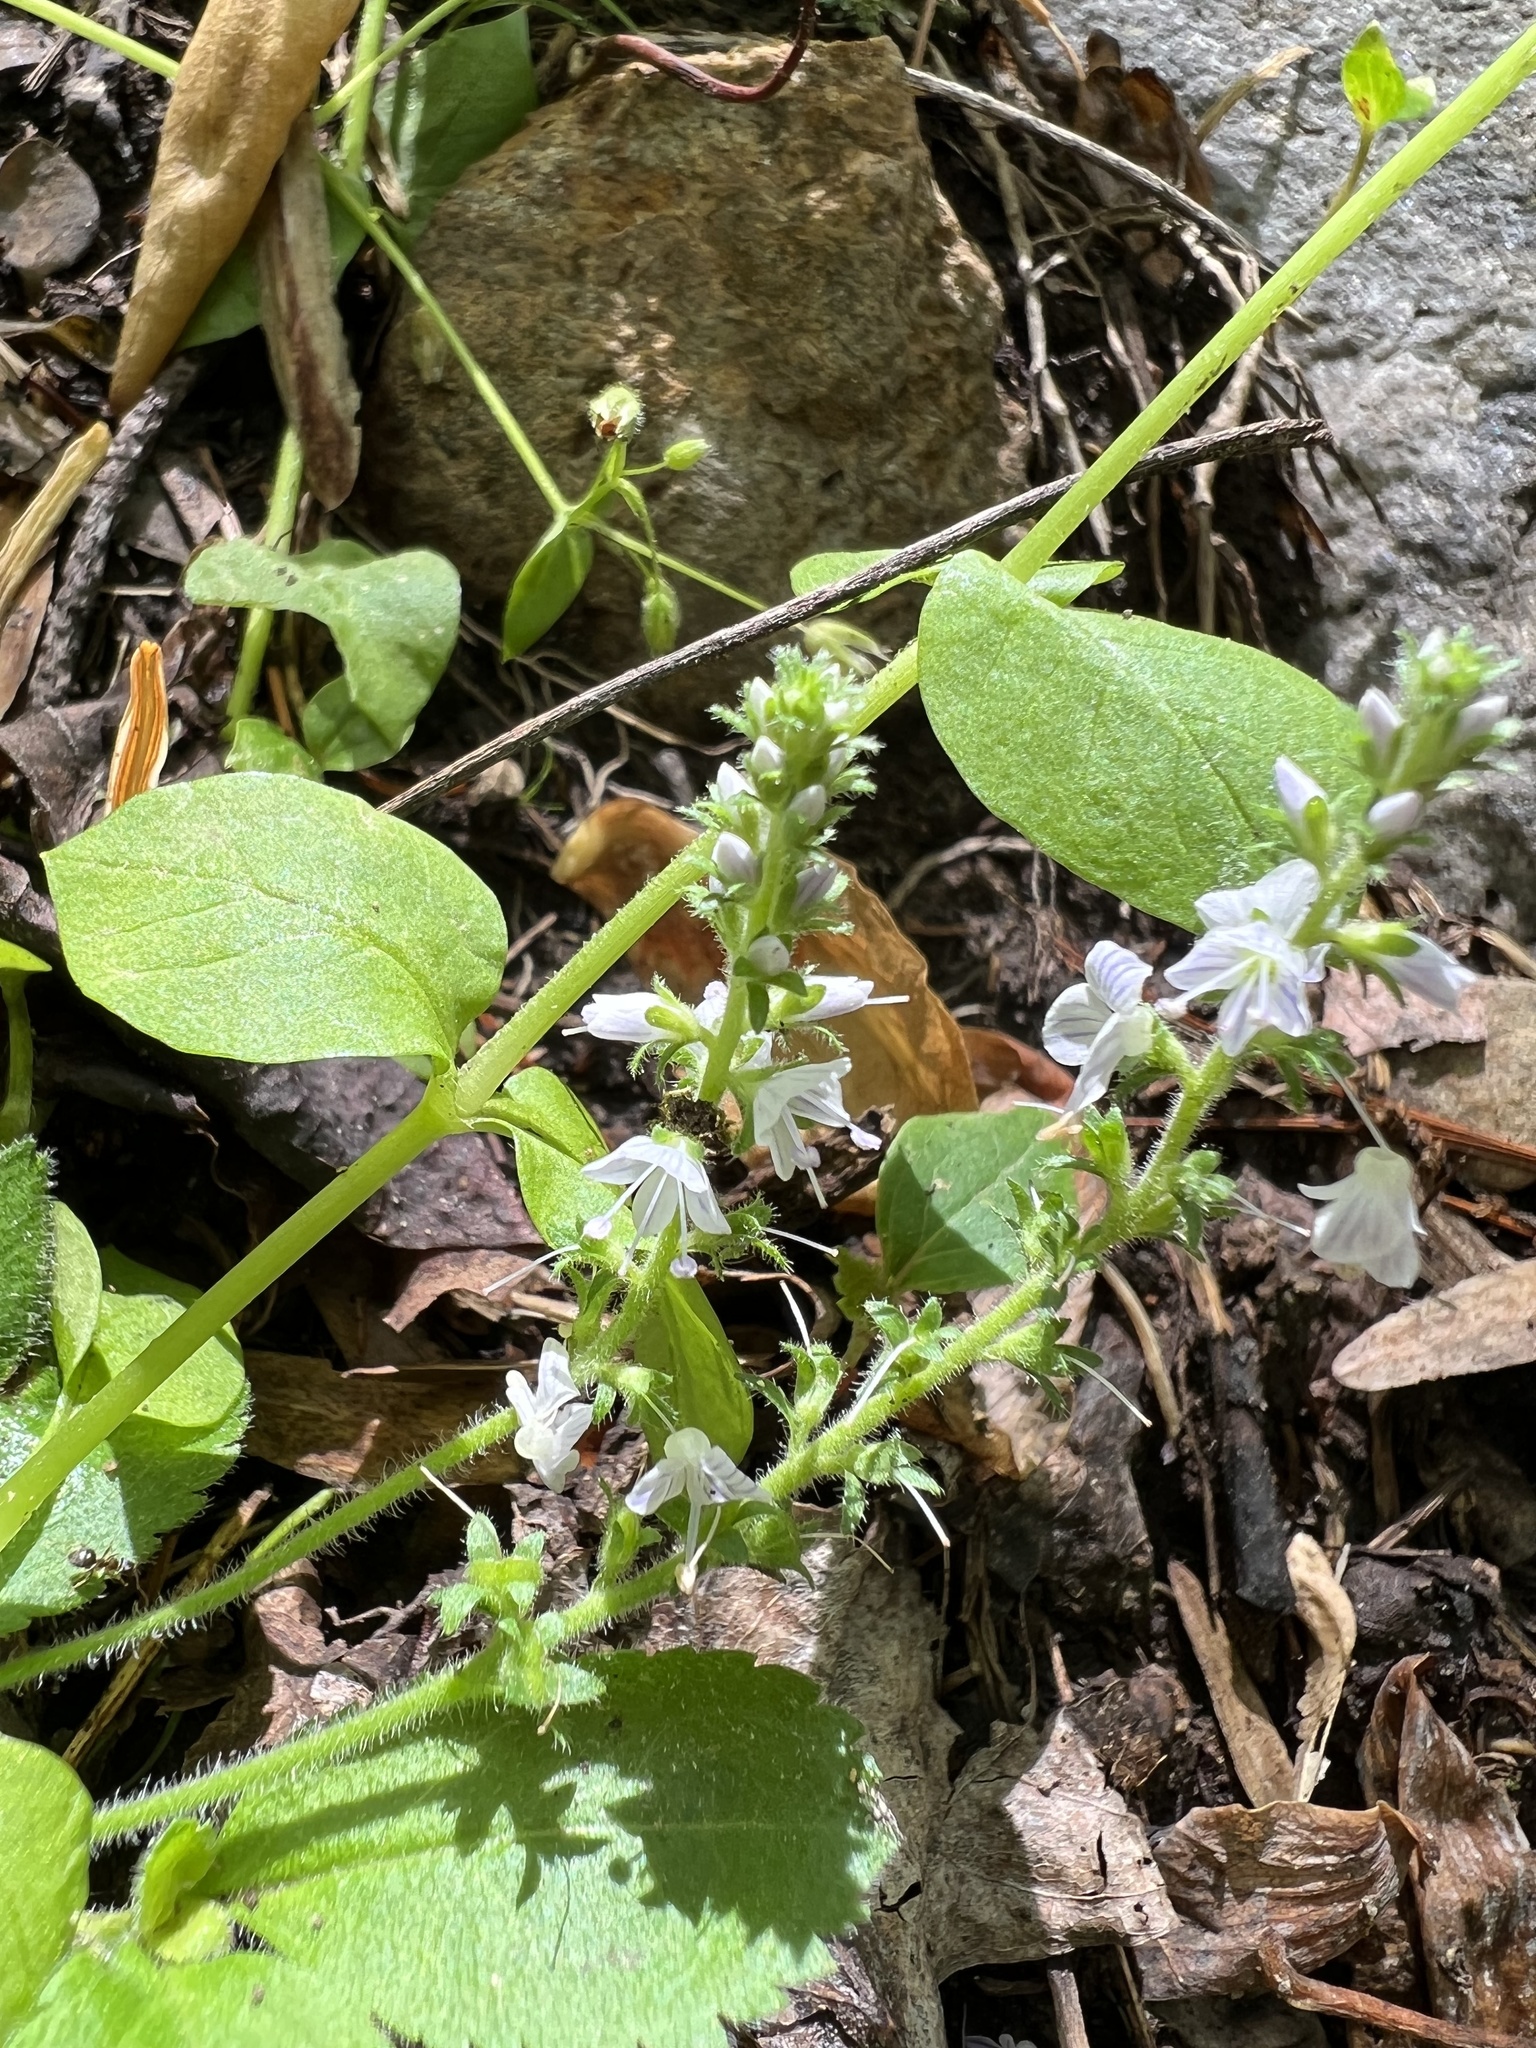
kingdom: Plantae
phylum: Tracheophyta
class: Magnoliopsida
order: Lamiales
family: Plantaginaceae
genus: Veronica
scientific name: Veronica officinalis
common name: Common speedwell
